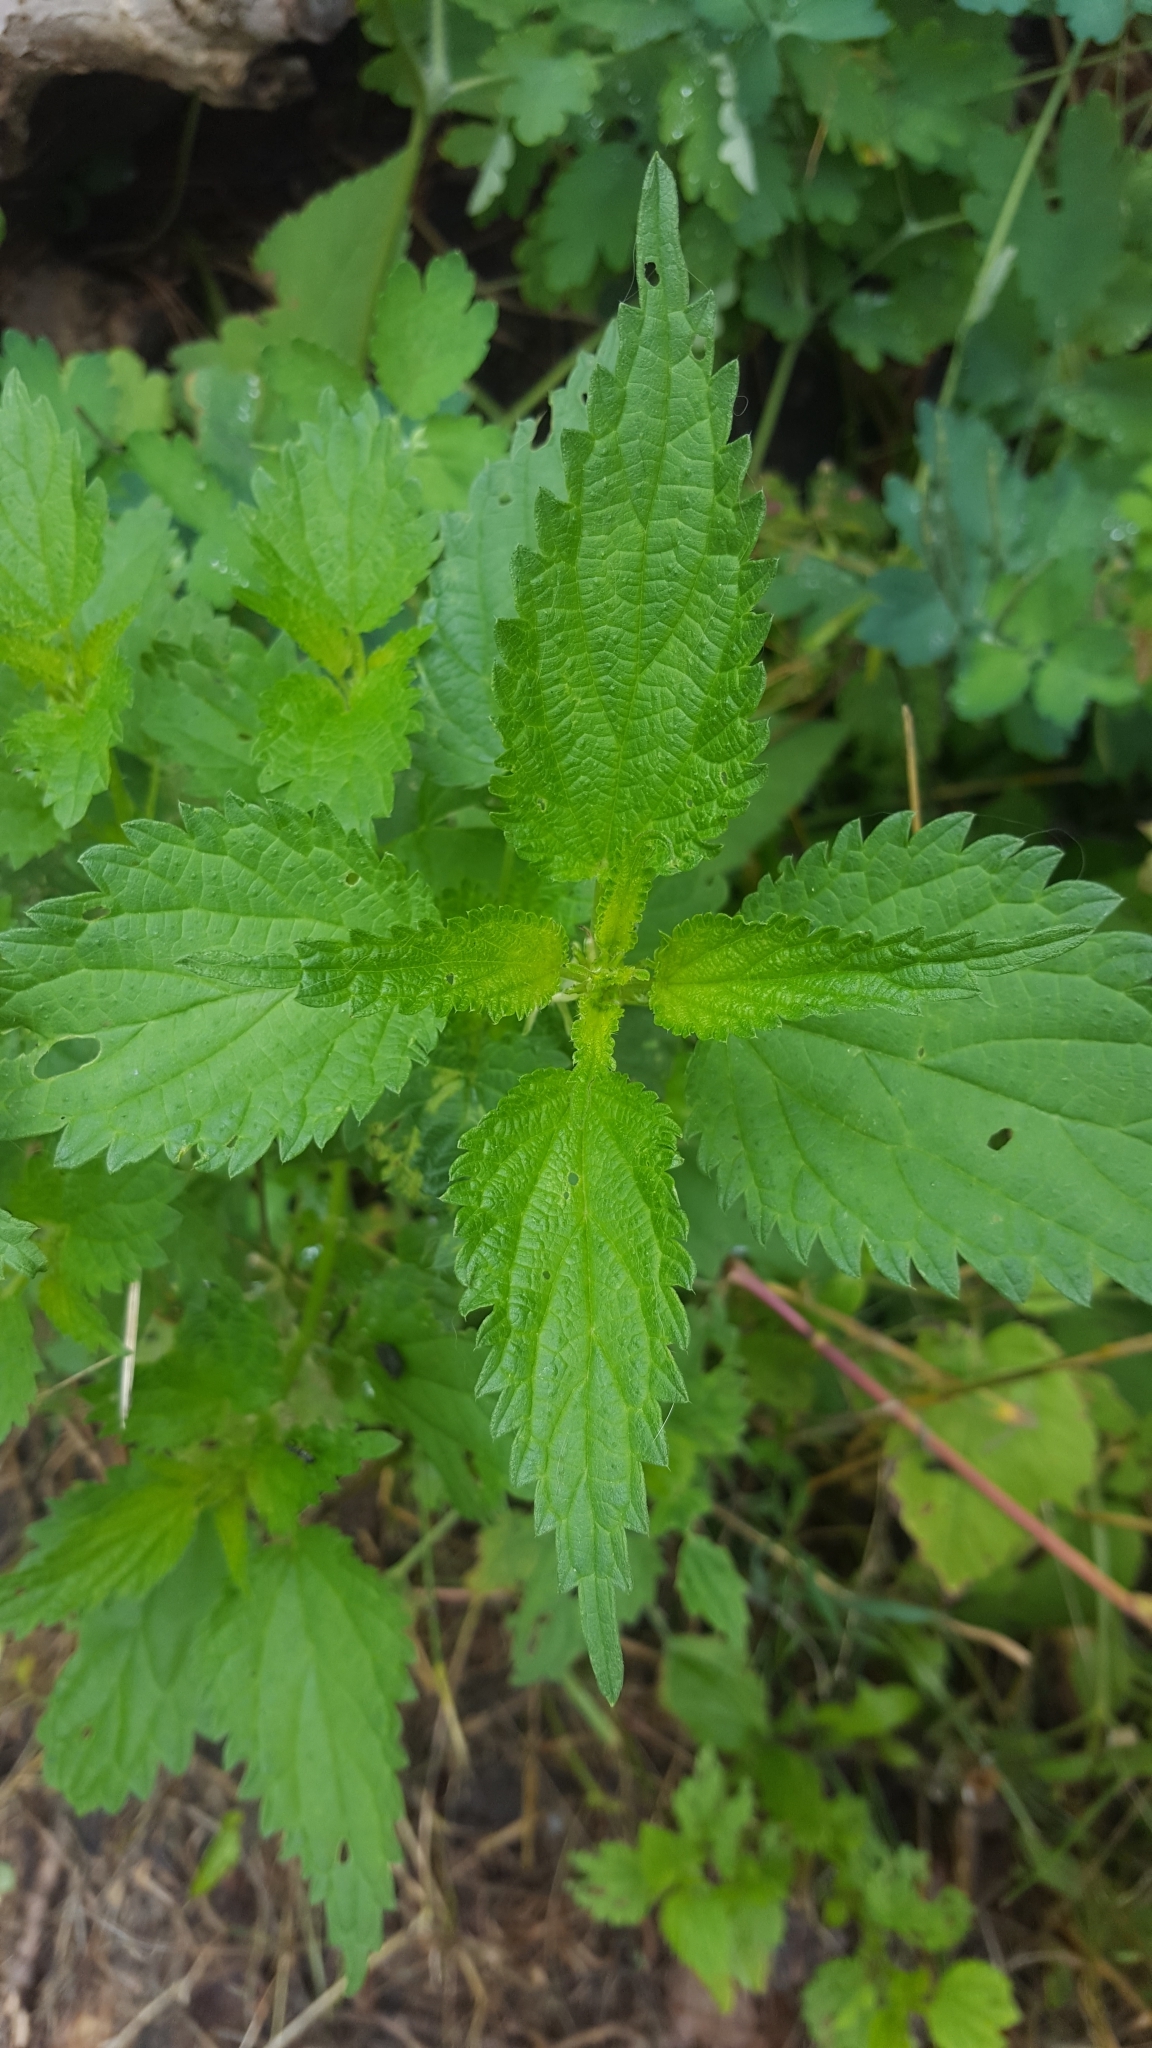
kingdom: Plantae
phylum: Tracheophyta
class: Magnoliopsida
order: Rosales
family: Urticaceae
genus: Urtica
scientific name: Urtica dioica
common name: Common nettle
